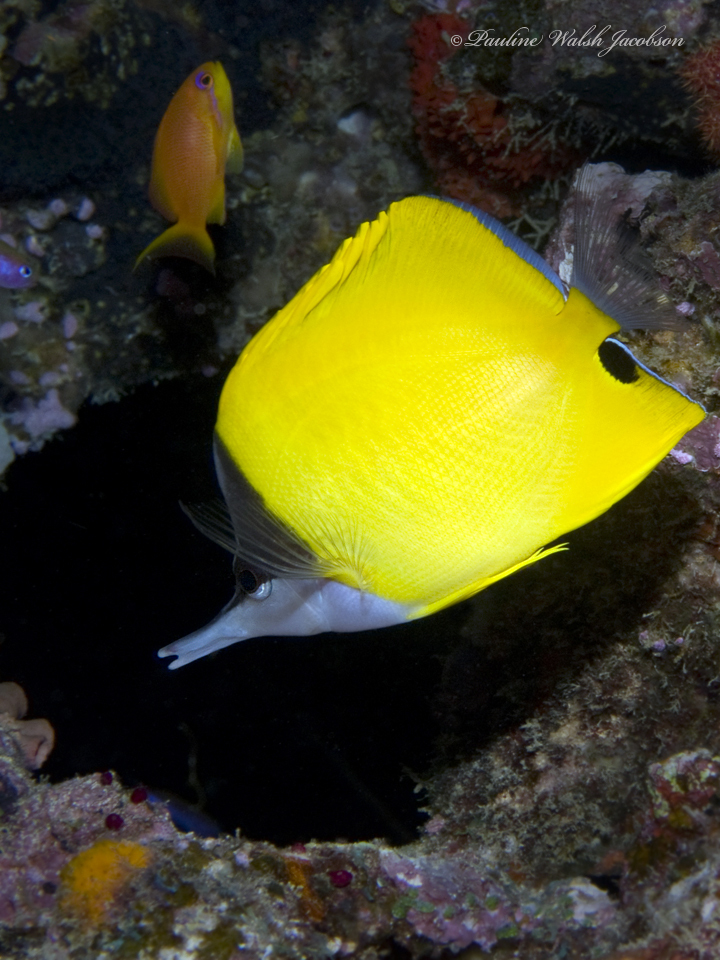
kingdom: Animalia
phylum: Chordata
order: Perciformes
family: Chaetodontidae
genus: Forcipiger
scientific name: Forcipiger flavissimus
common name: Forcepsfish
